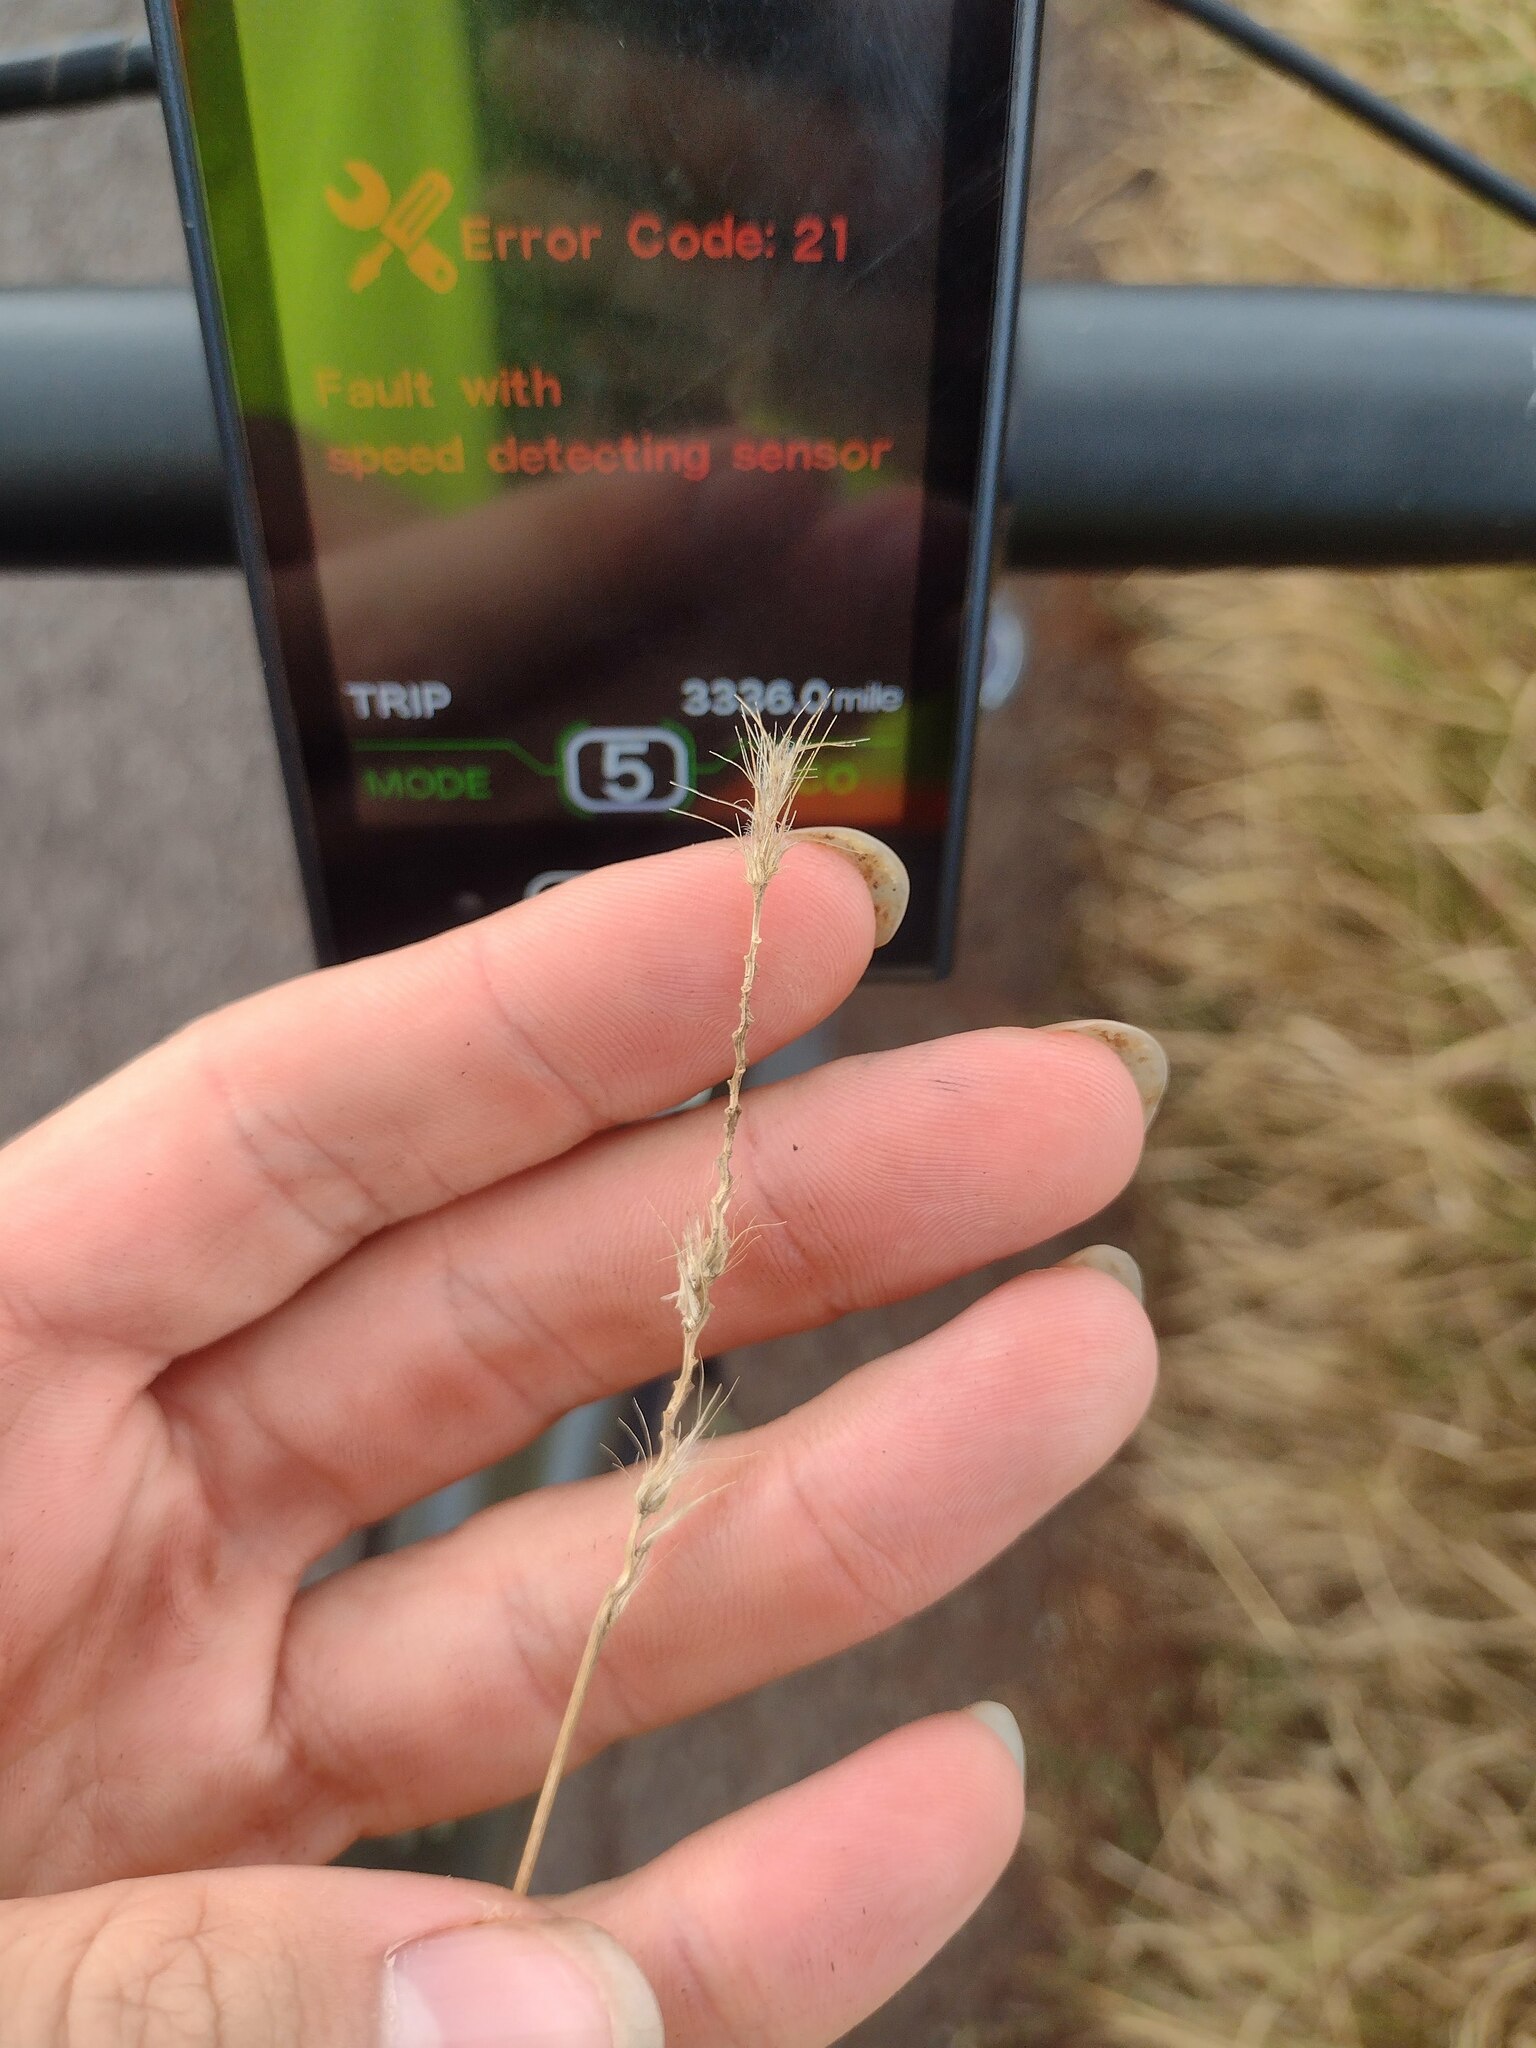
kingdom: Plantae
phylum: Tracheophyta
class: Liliopsida
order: Poales
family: Poaceae
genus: Cenchrus
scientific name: Cenchrus ciliaris
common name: Buffelgrass
